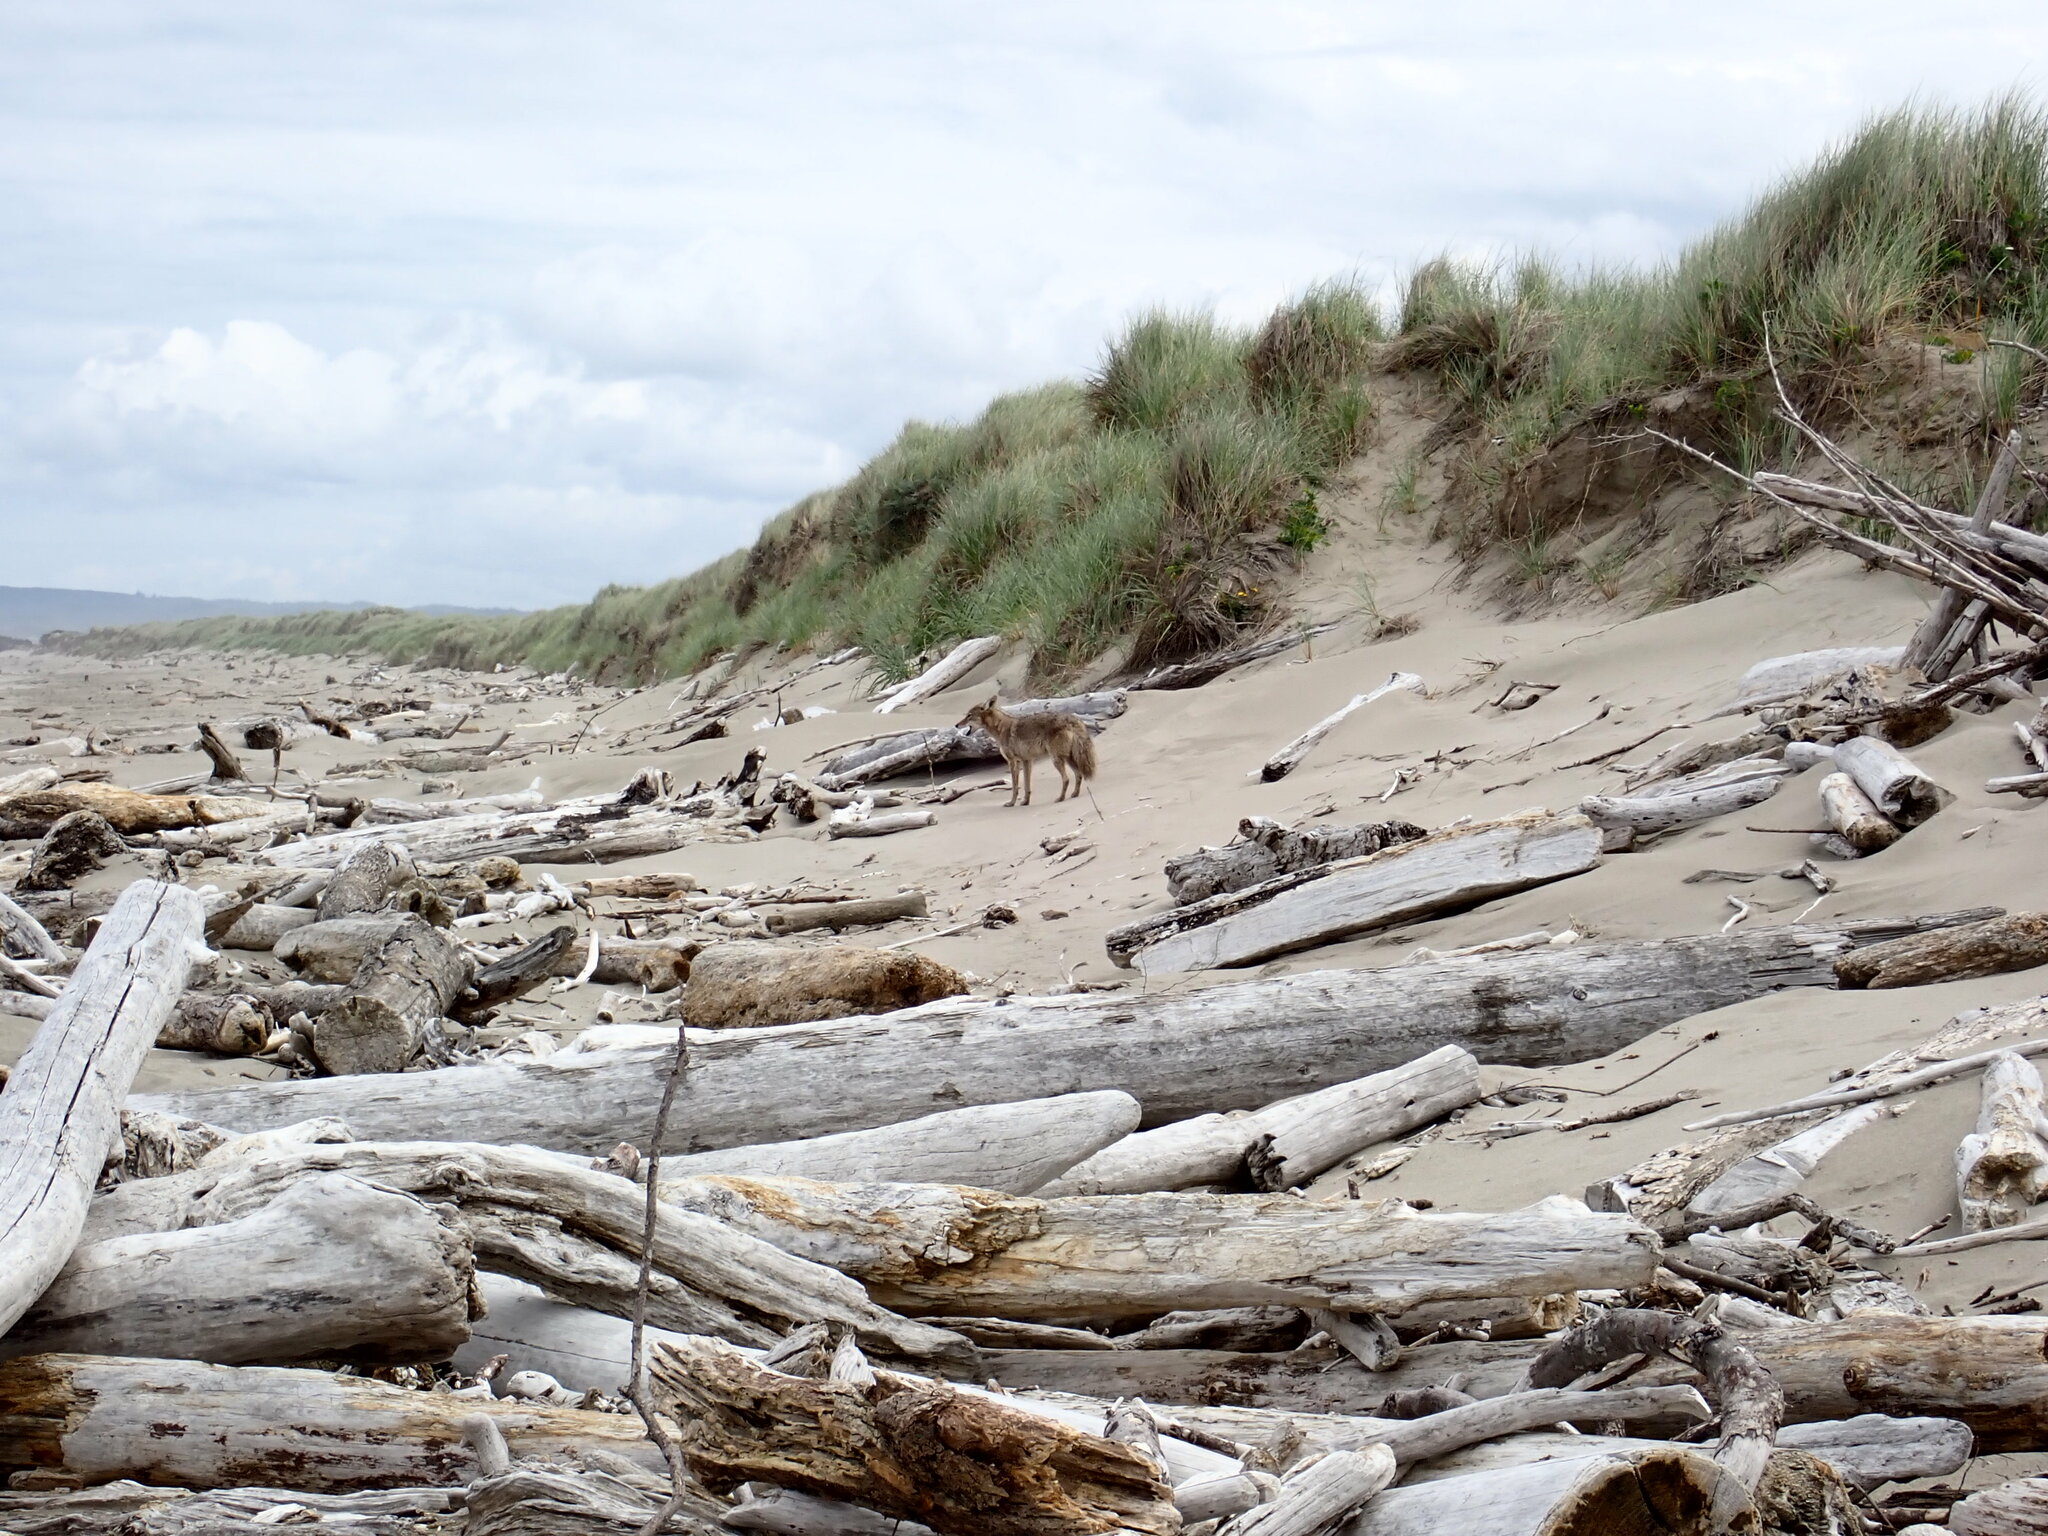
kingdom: Animalia
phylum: Chordata
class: Mammalia
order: Carnivora
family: Canidae
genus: Canis
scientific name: Canis latrans
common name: Coyote
